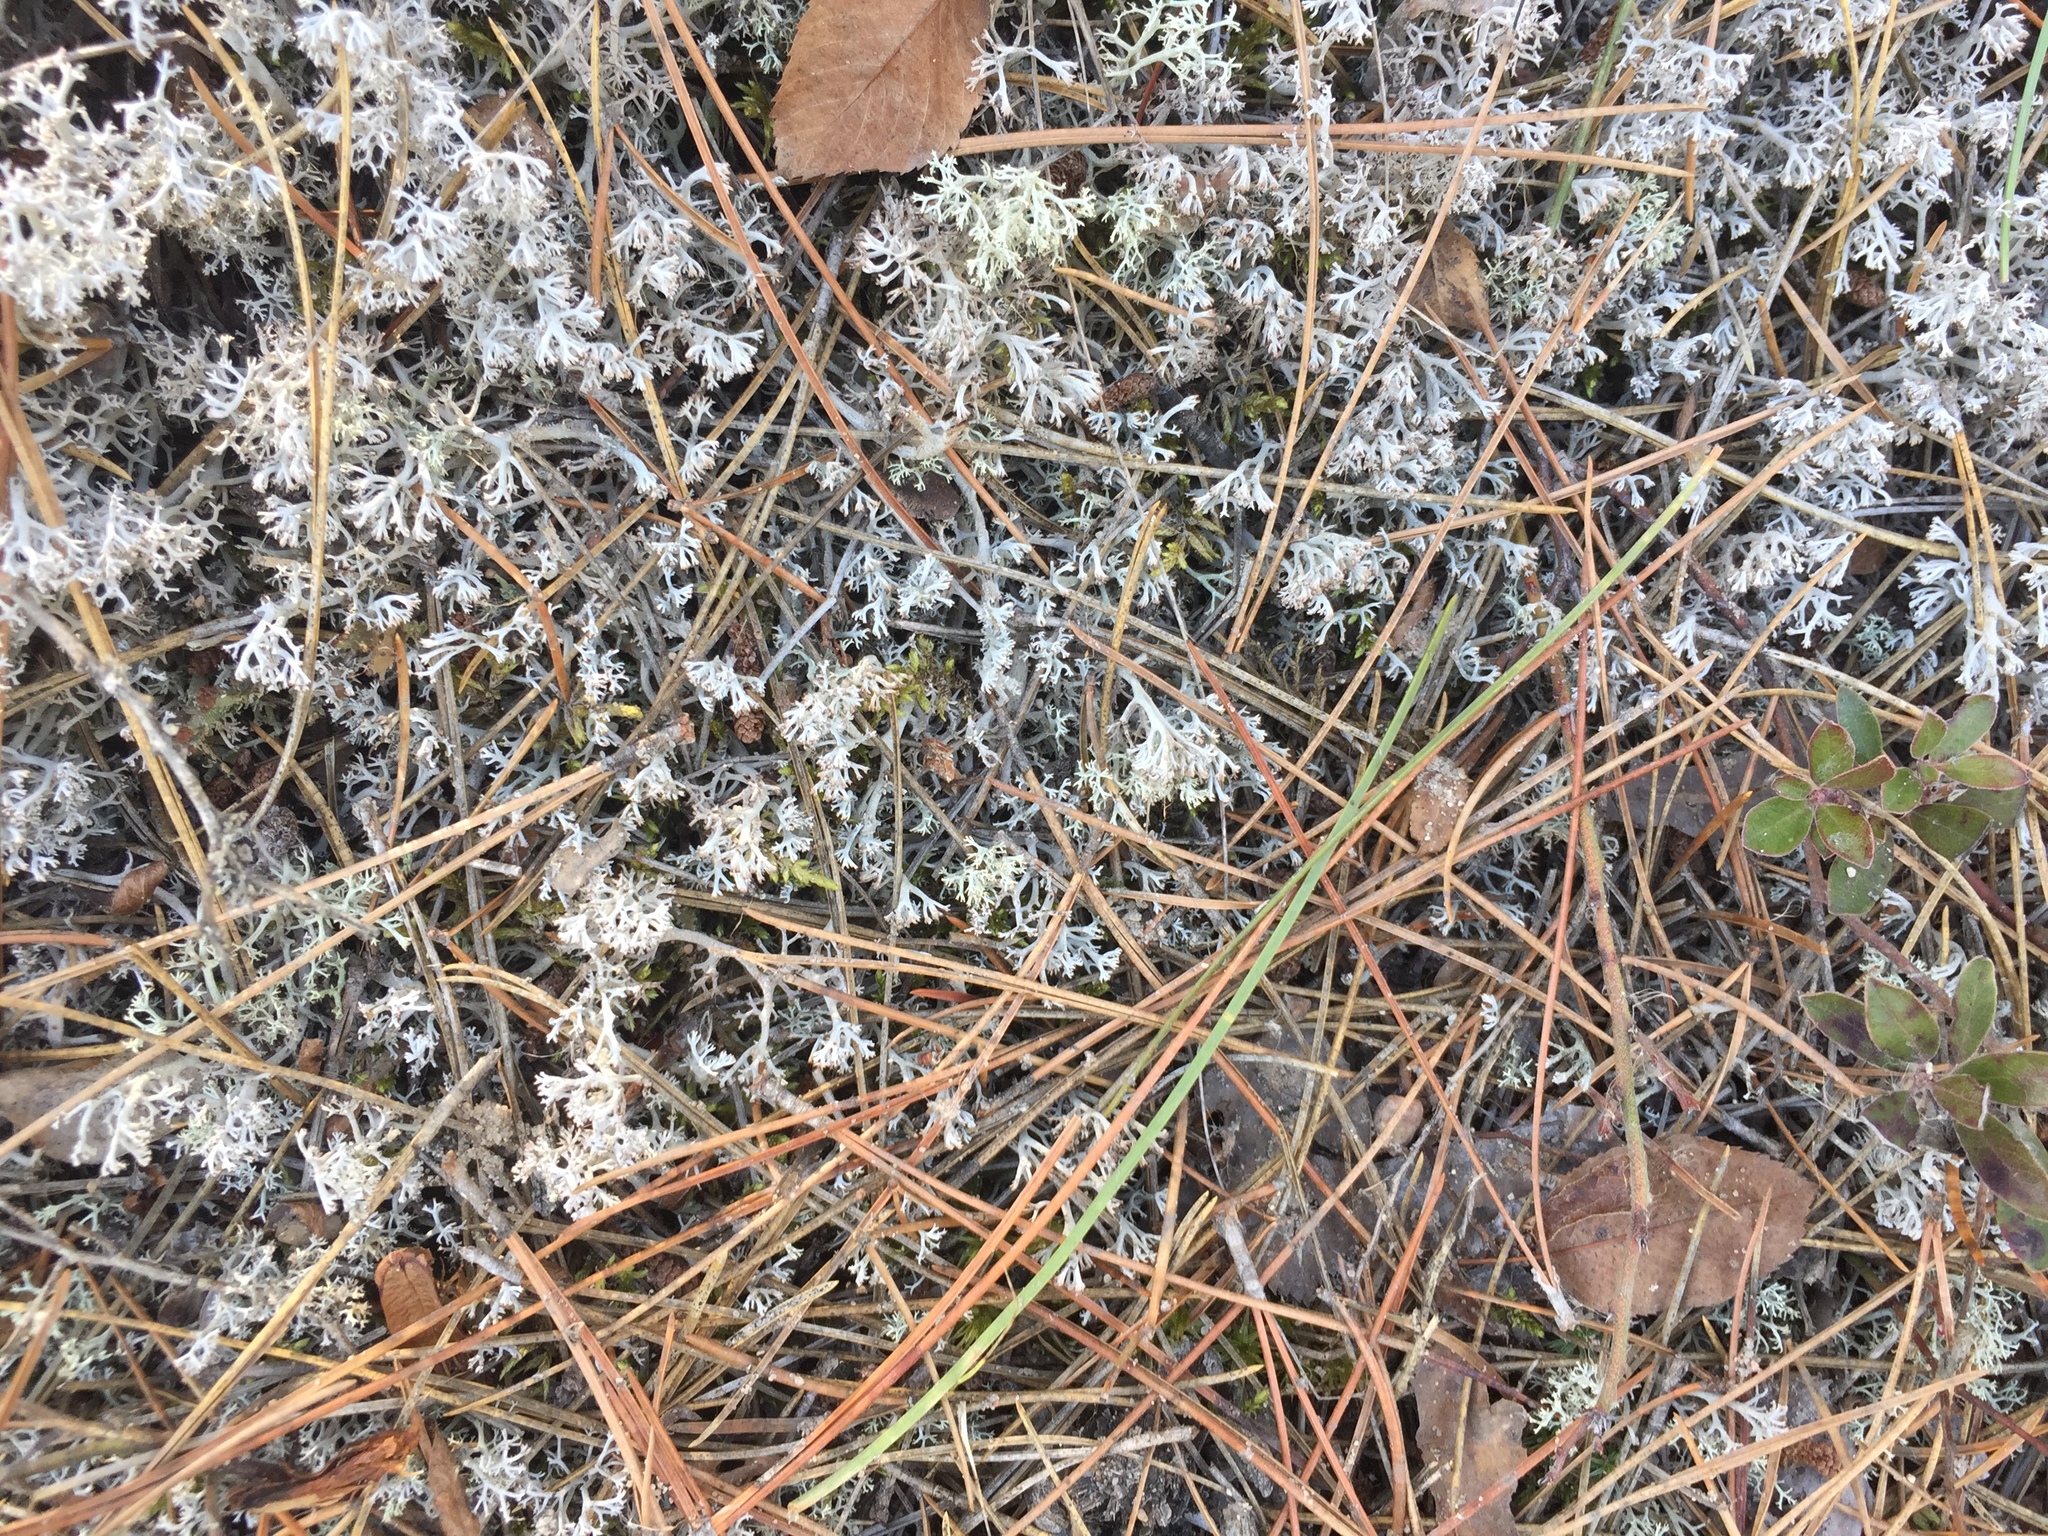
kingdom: Fungi
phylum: Ascomycota
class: Lecanoromycetes
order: Lecanorales
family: Cladoniaceae
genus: Cladonia
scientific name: Cladonia rangiferina
